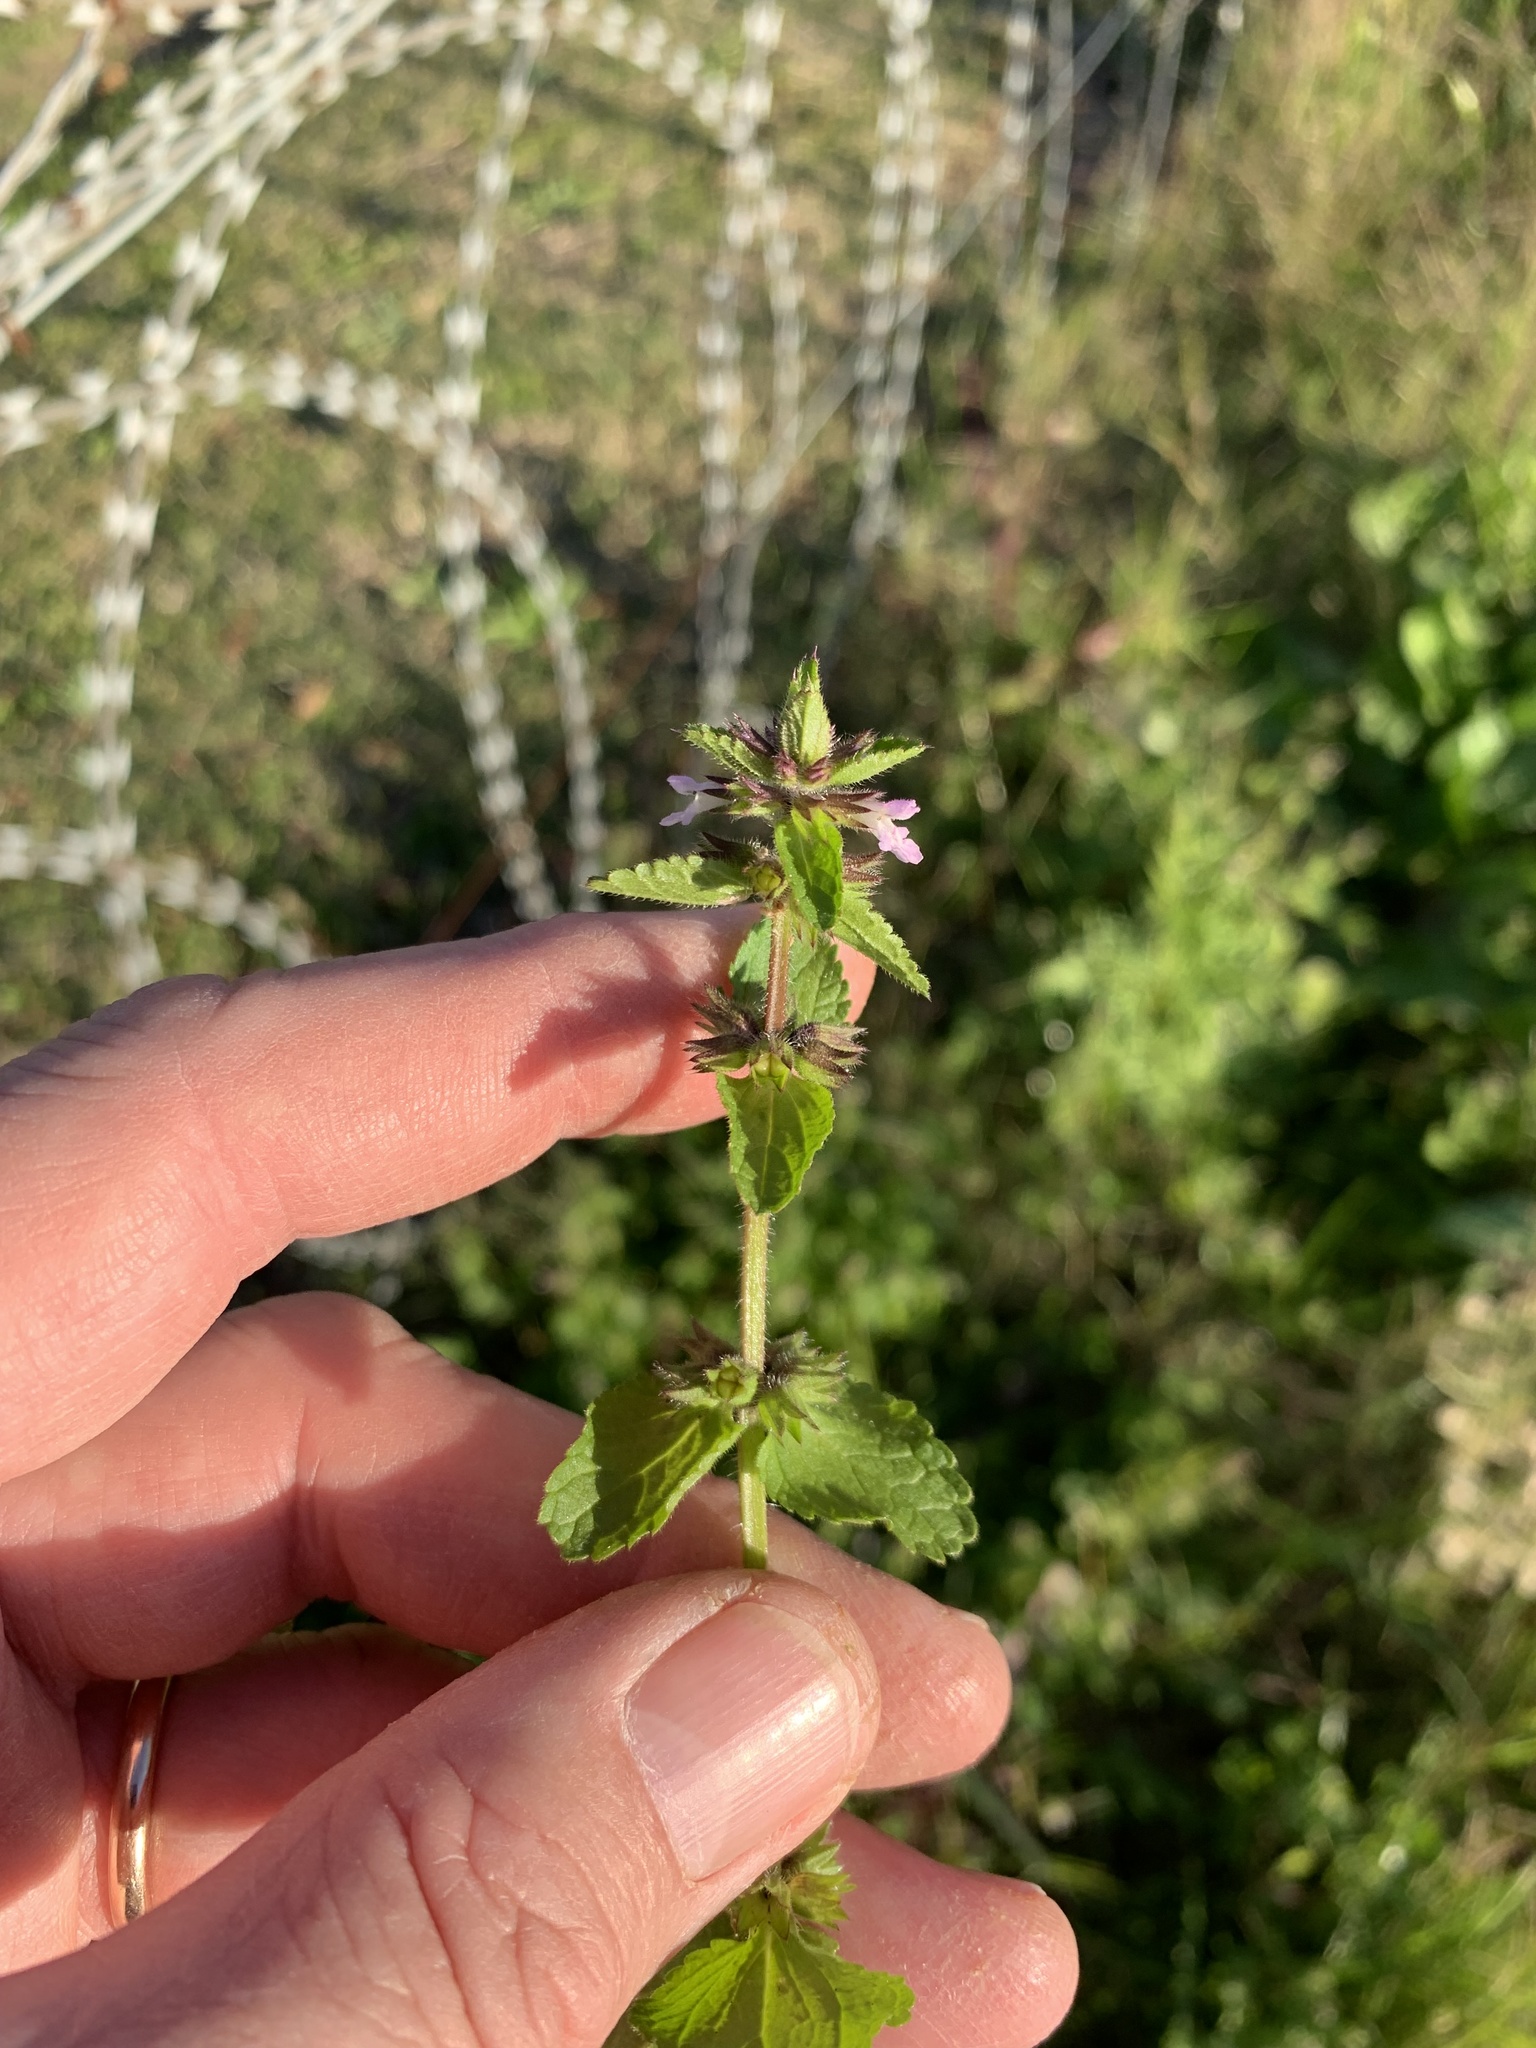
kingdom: Plantae
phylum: Tracheophyta
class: Magnoliopsida
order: Lamiales
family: Lamiaceae
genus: Stachys
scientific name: Stachys arvensis
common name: Field woundwort
